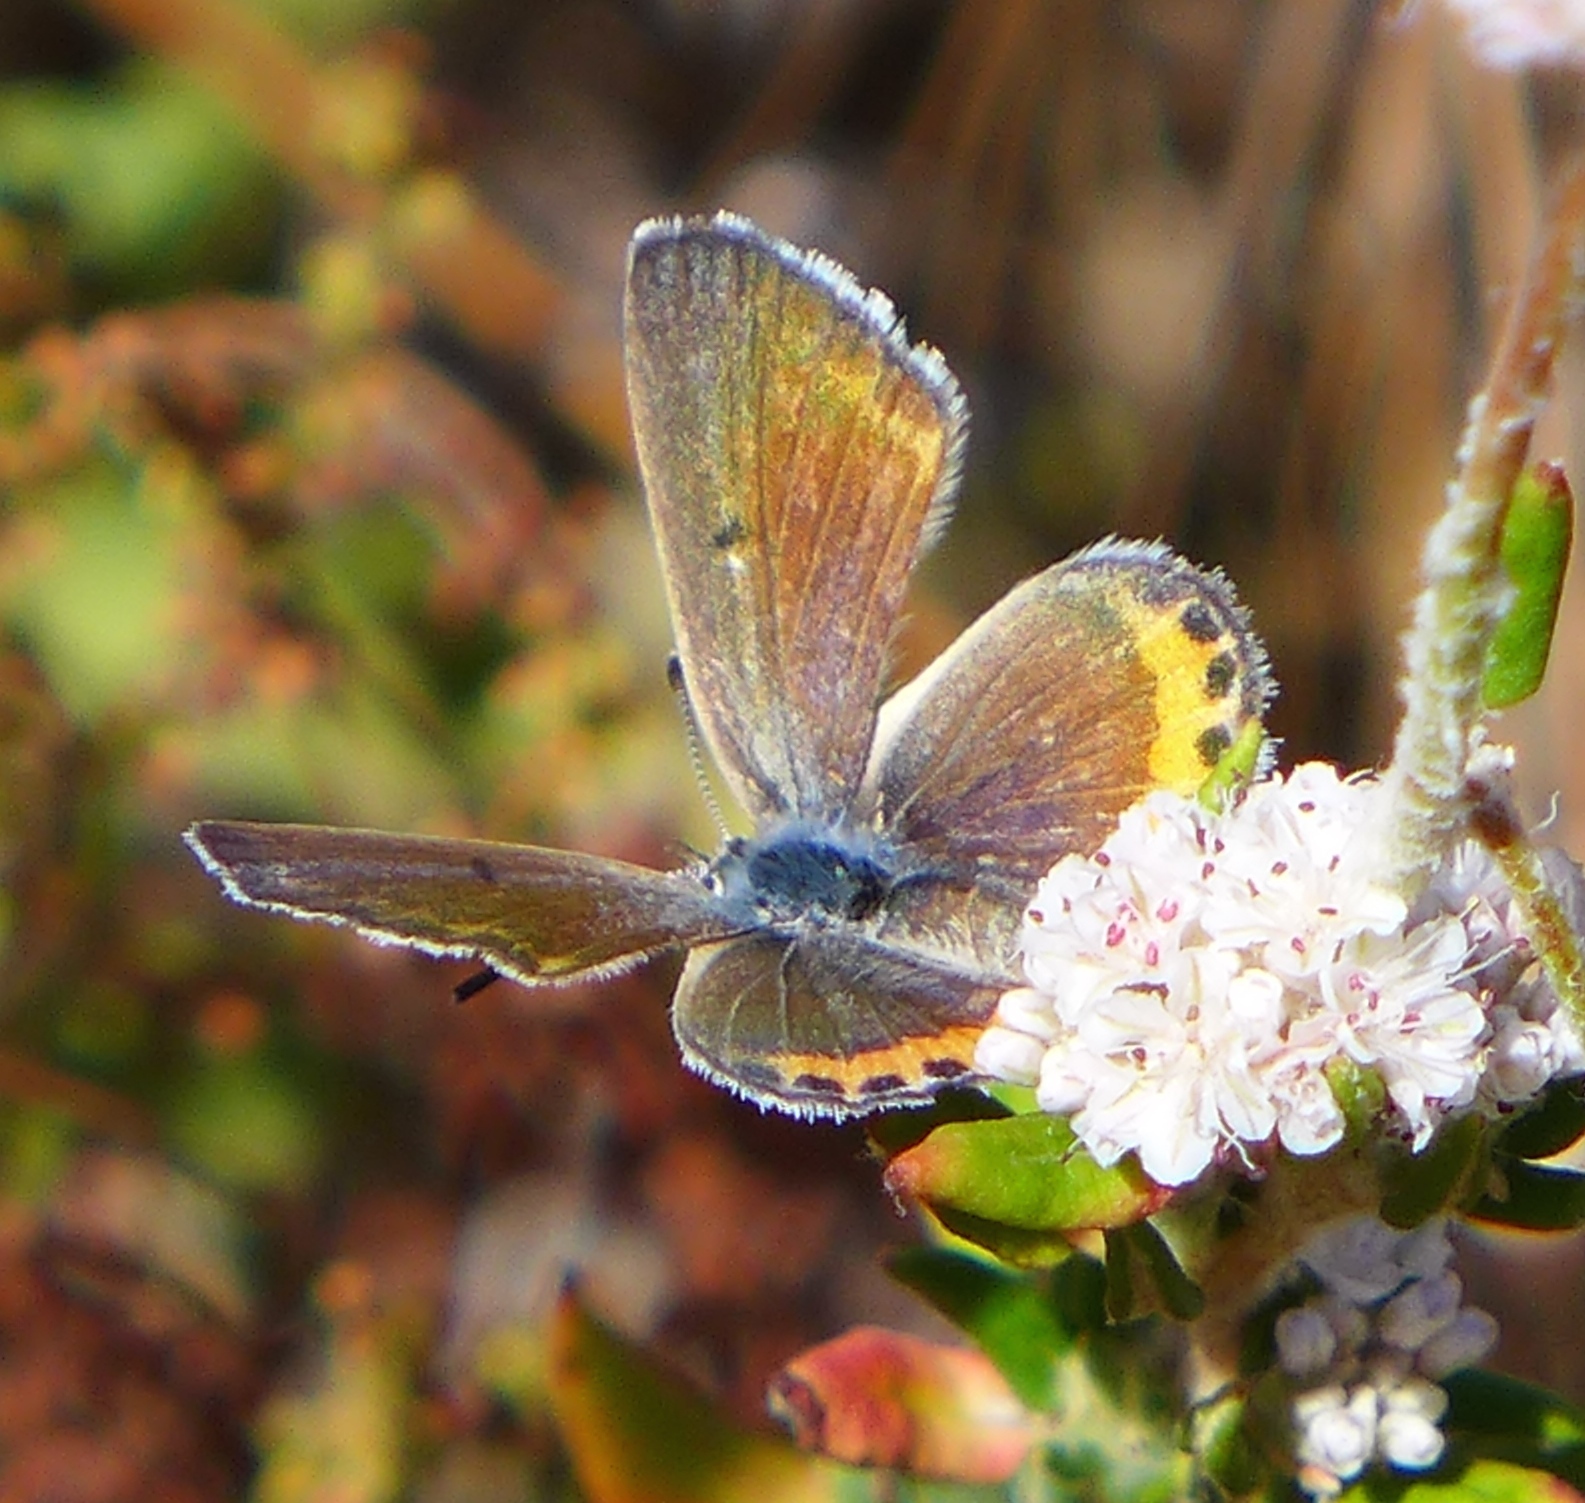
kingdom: Animalia
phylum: Arthropoda
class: Insecta
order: Lepidoptera
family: Lycaenidae
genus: Icaricia
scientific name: Icaricia acmon
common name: Acmon blue
